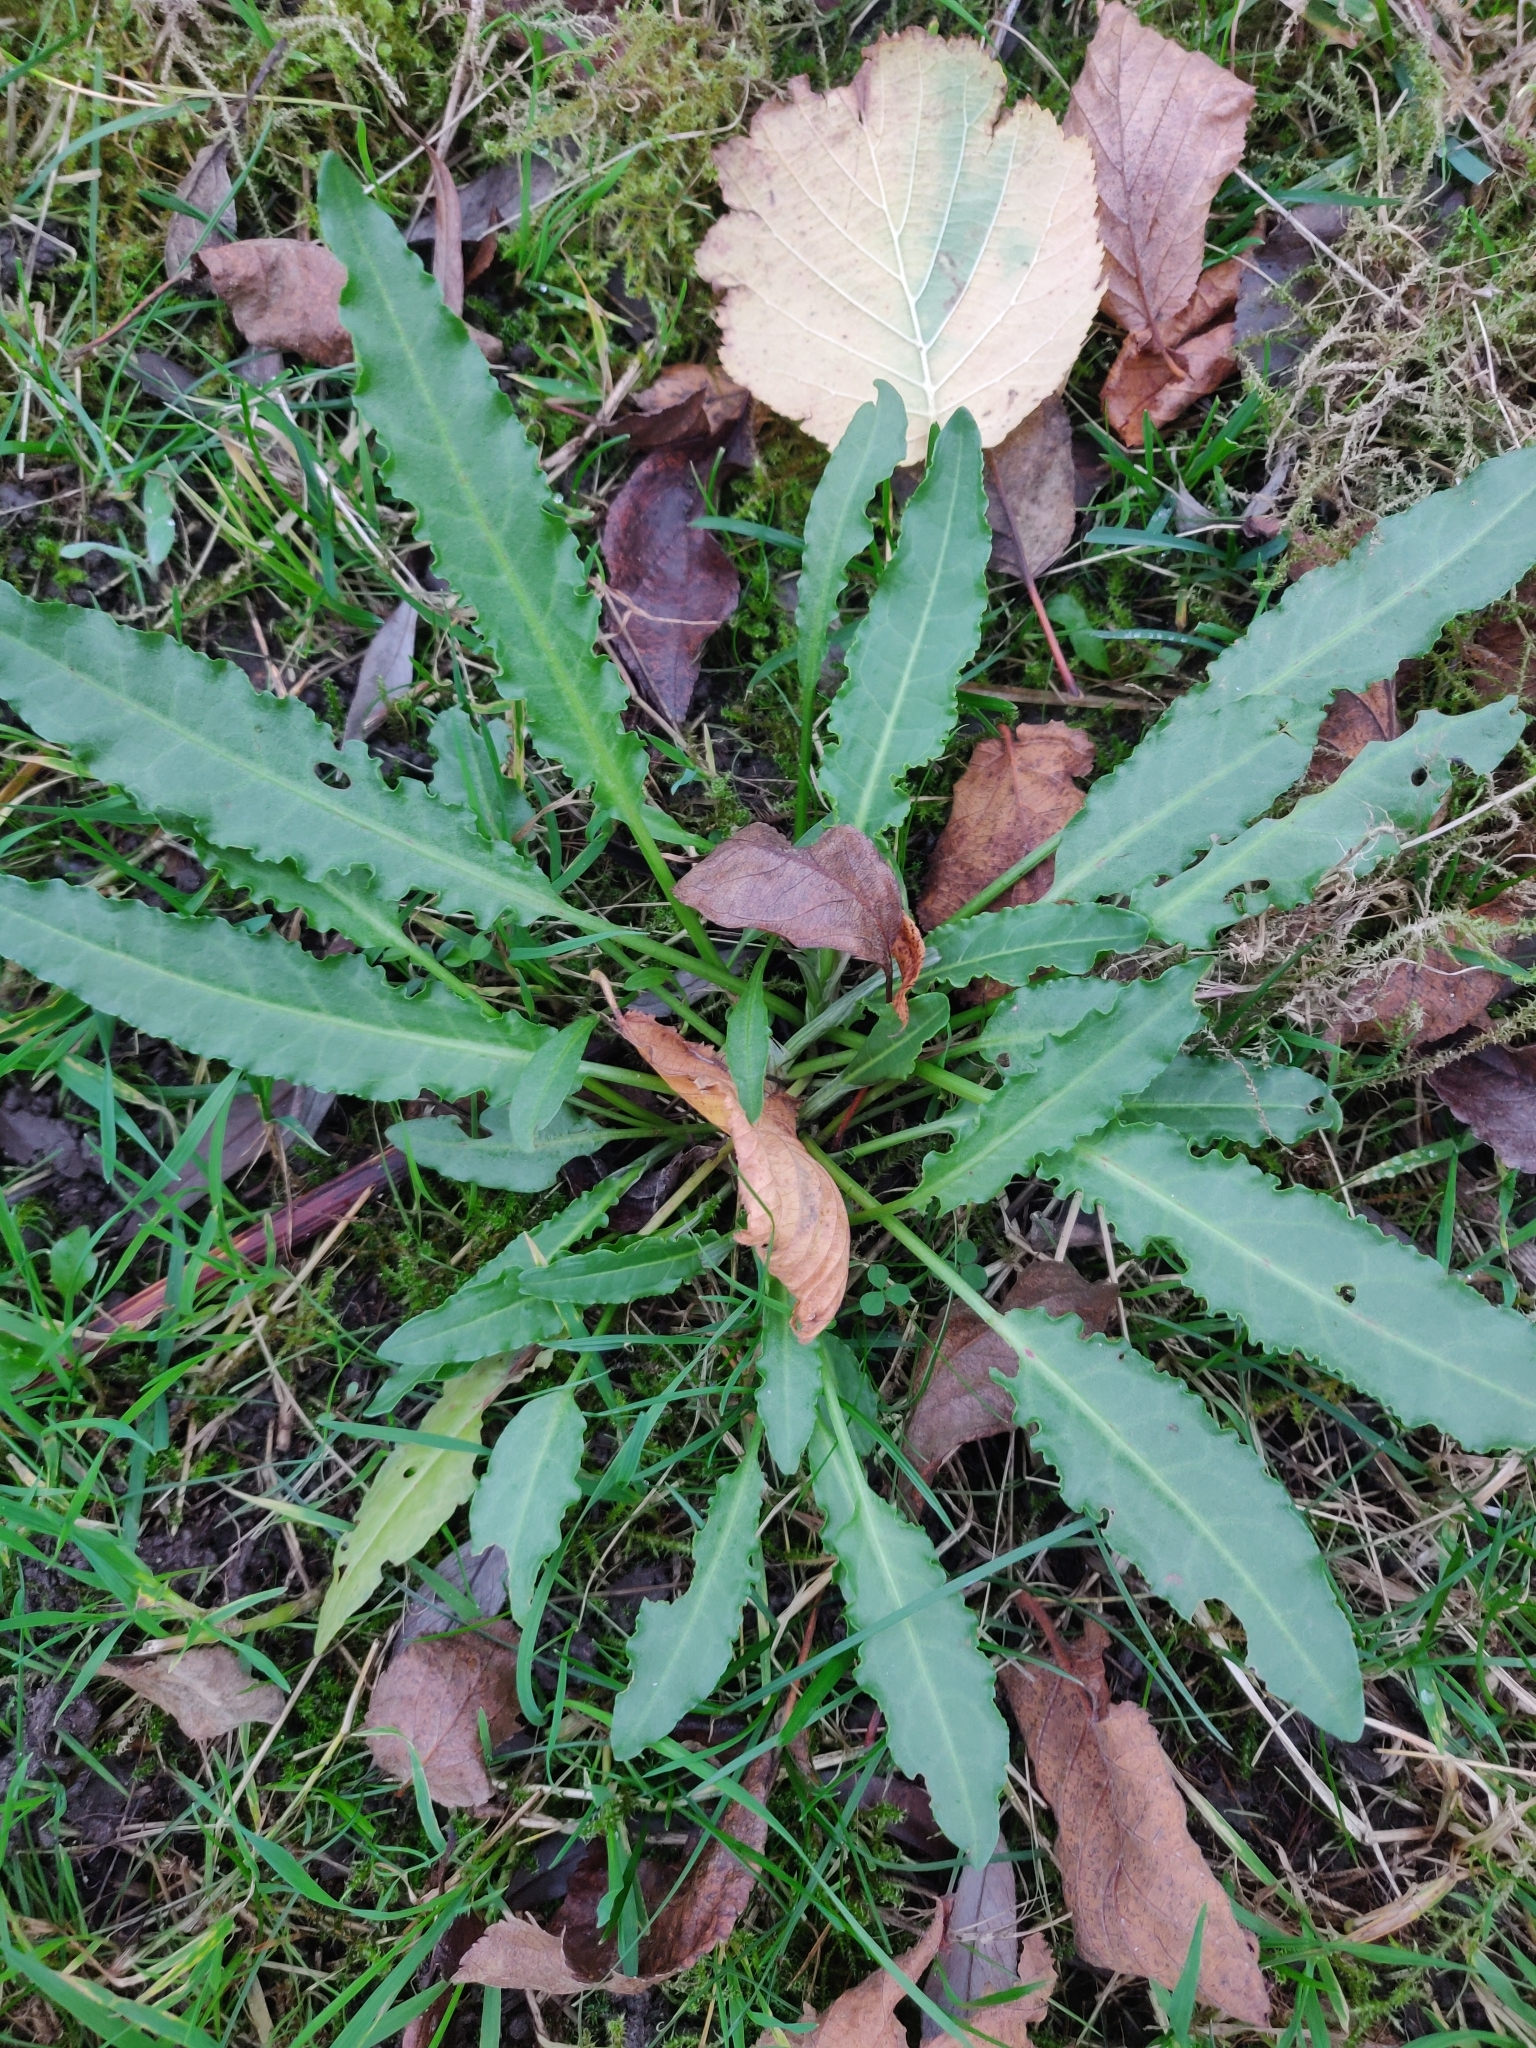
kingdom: Plantae
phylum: Tracheophyta
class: Magnoliopsida
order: Caryophyllales
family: Polygonaceae
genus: Rumex
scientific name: Rumex crispus
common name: Curled dock
